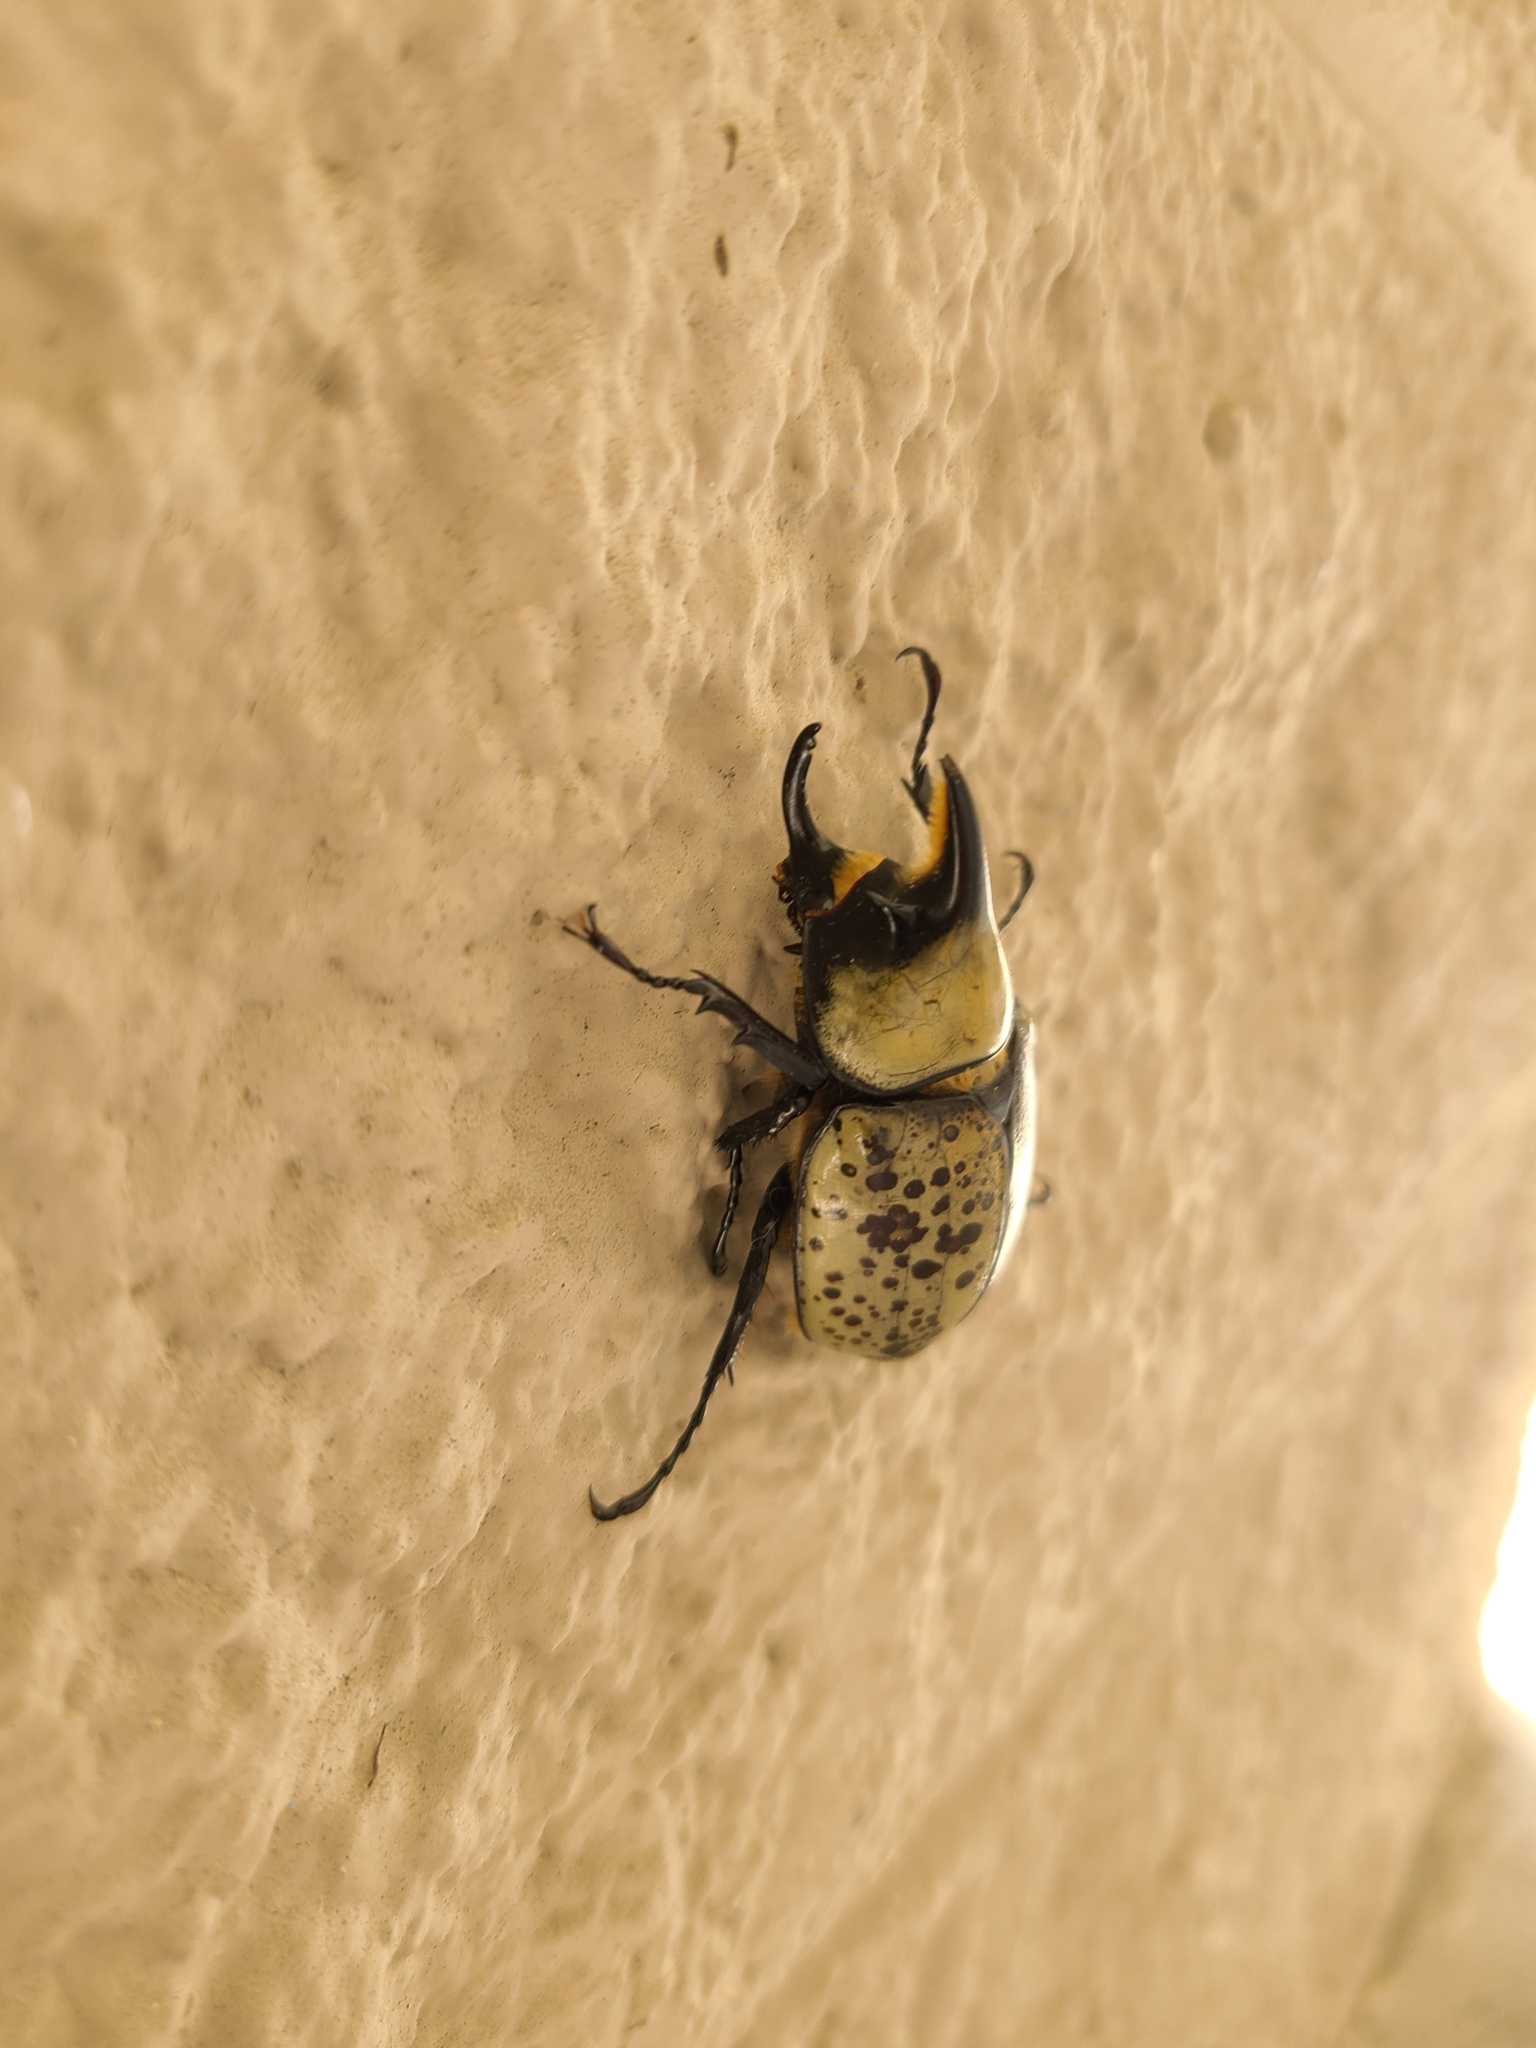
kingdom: Animalia
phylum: Arthropoda
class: Insecta
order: Coleoptera
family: Scarabaeidae
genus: Dynastes
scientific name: Dynastes tityus
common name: Eastern hercules beetle
